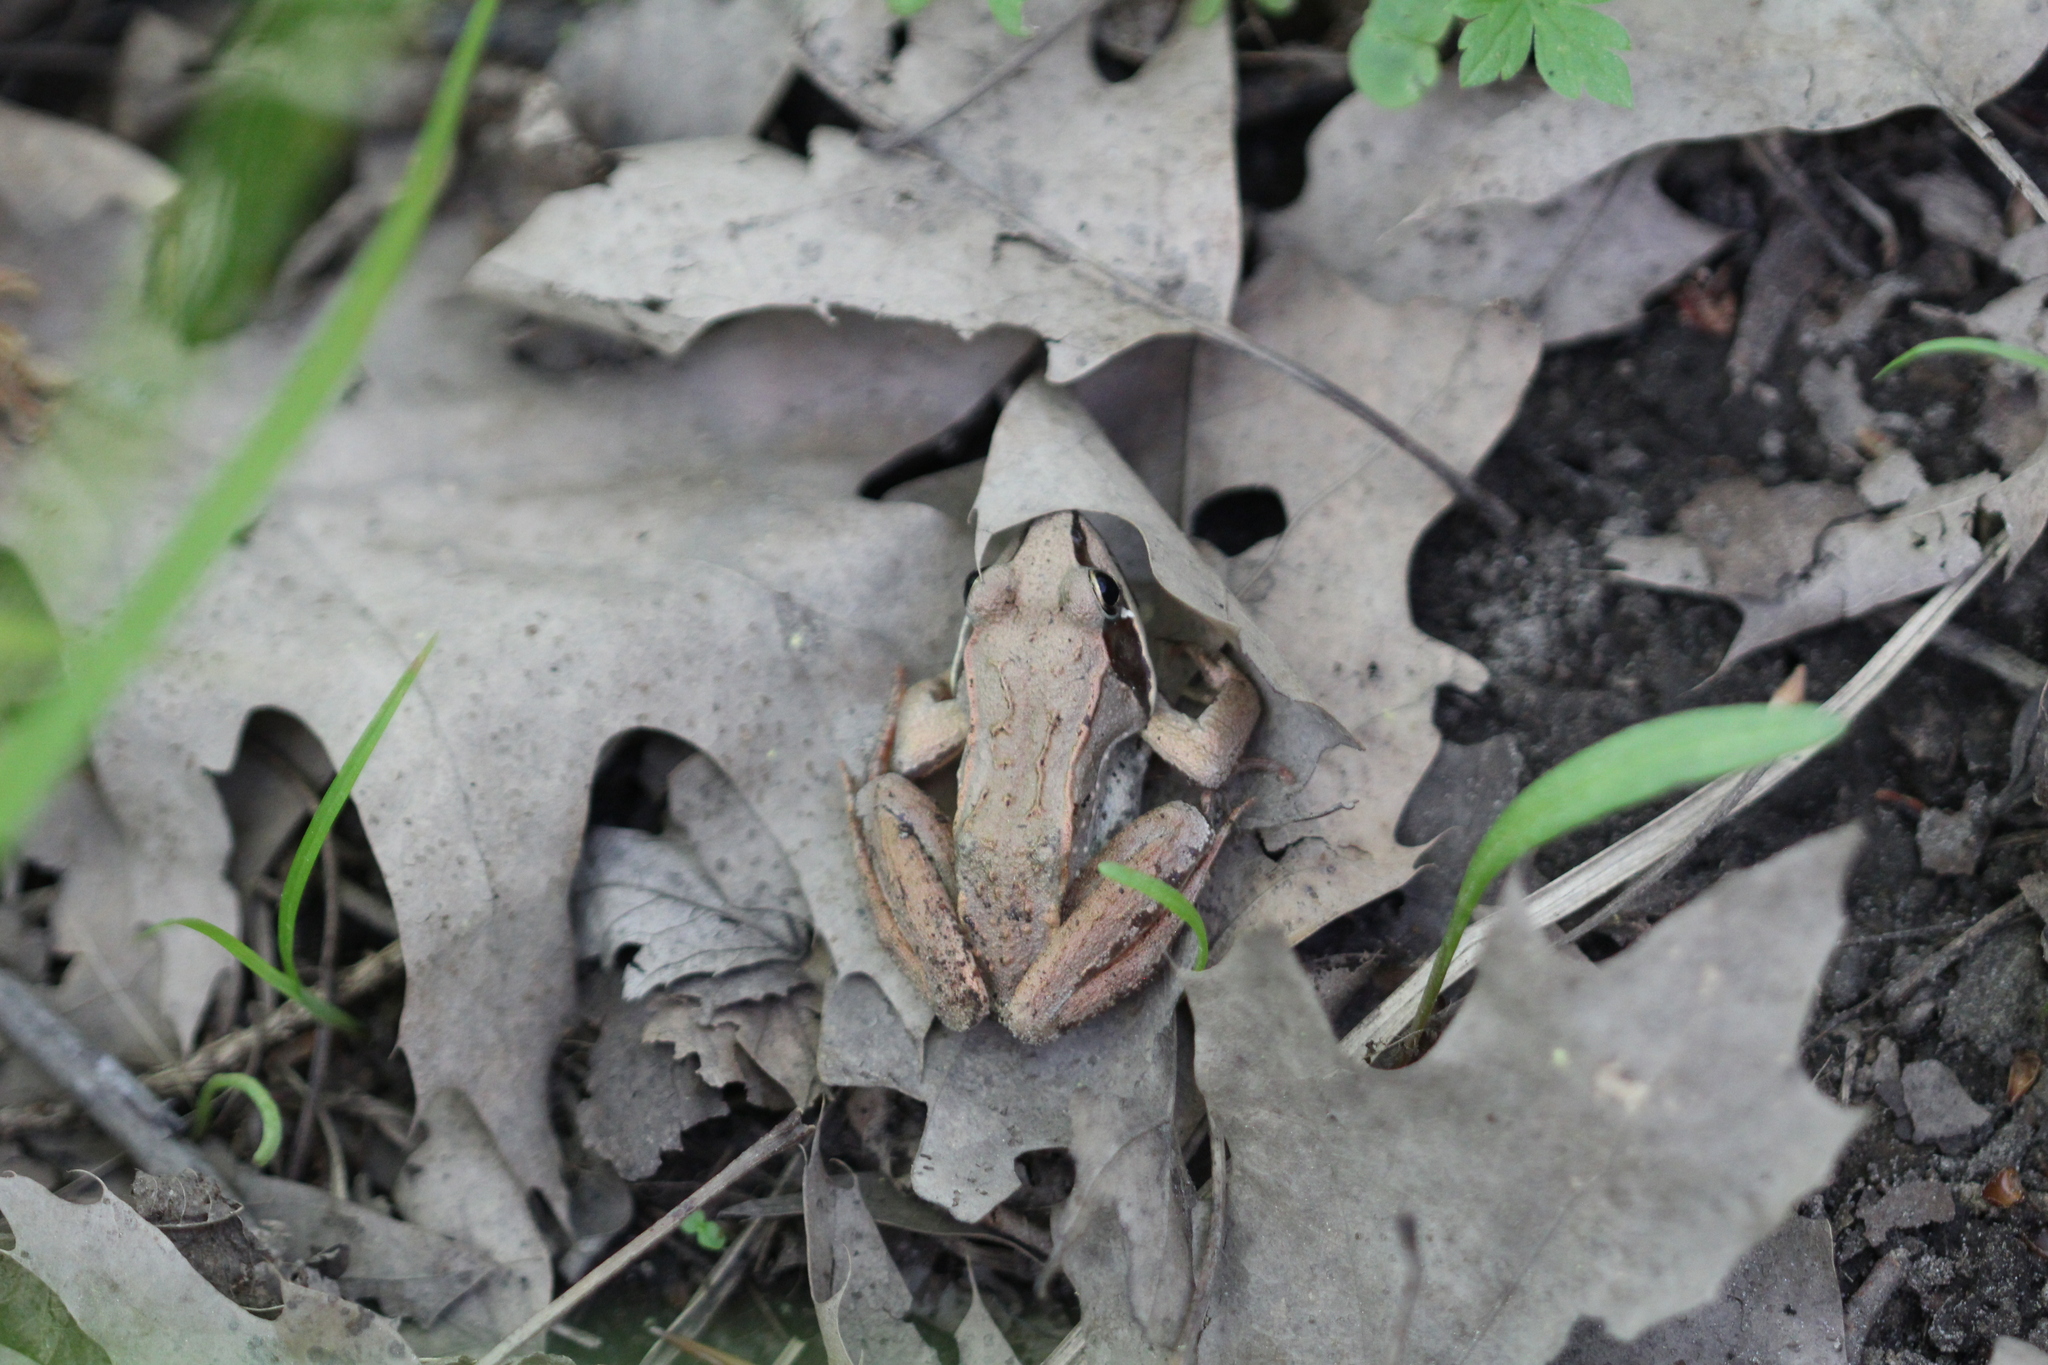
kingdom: Animalia
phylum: Chordata
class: Amphibia
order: Anura
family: Ranidae
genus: Lithobates
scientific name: Lithobates sylvaticus
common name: Wood frog
